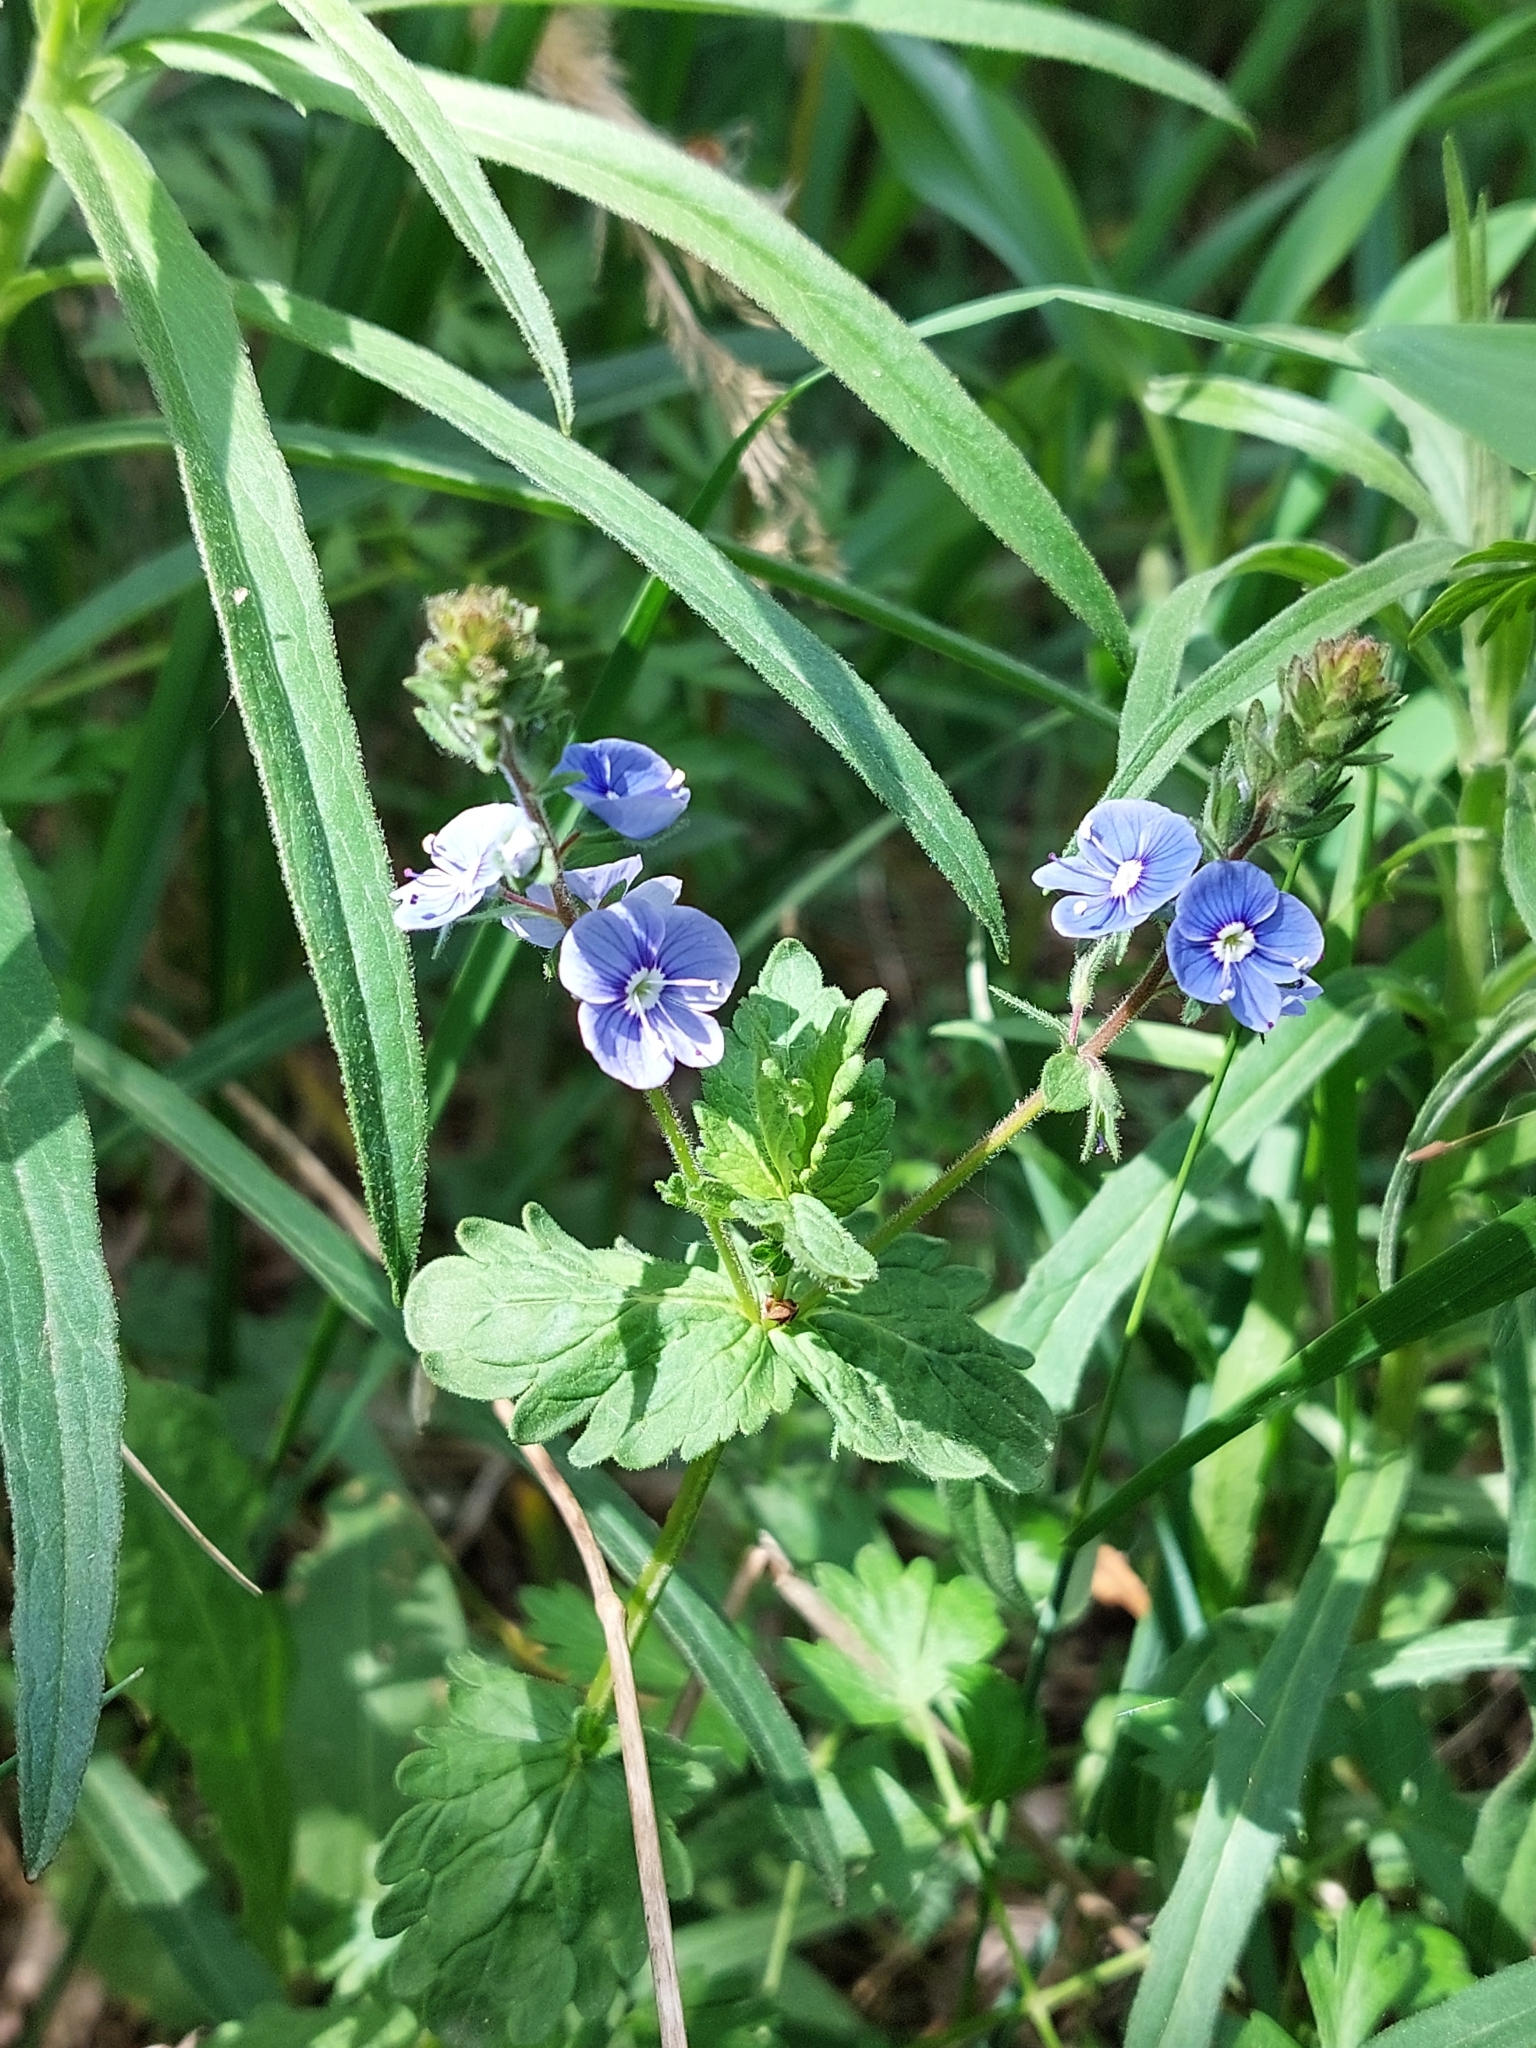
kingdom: Plantae
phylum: Tracheophyta
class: Magnoliopsida
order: Lamiales
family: Plantaginaceae
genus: Veronica
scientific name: Veronica chamaedrys
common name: Germander speedwell
